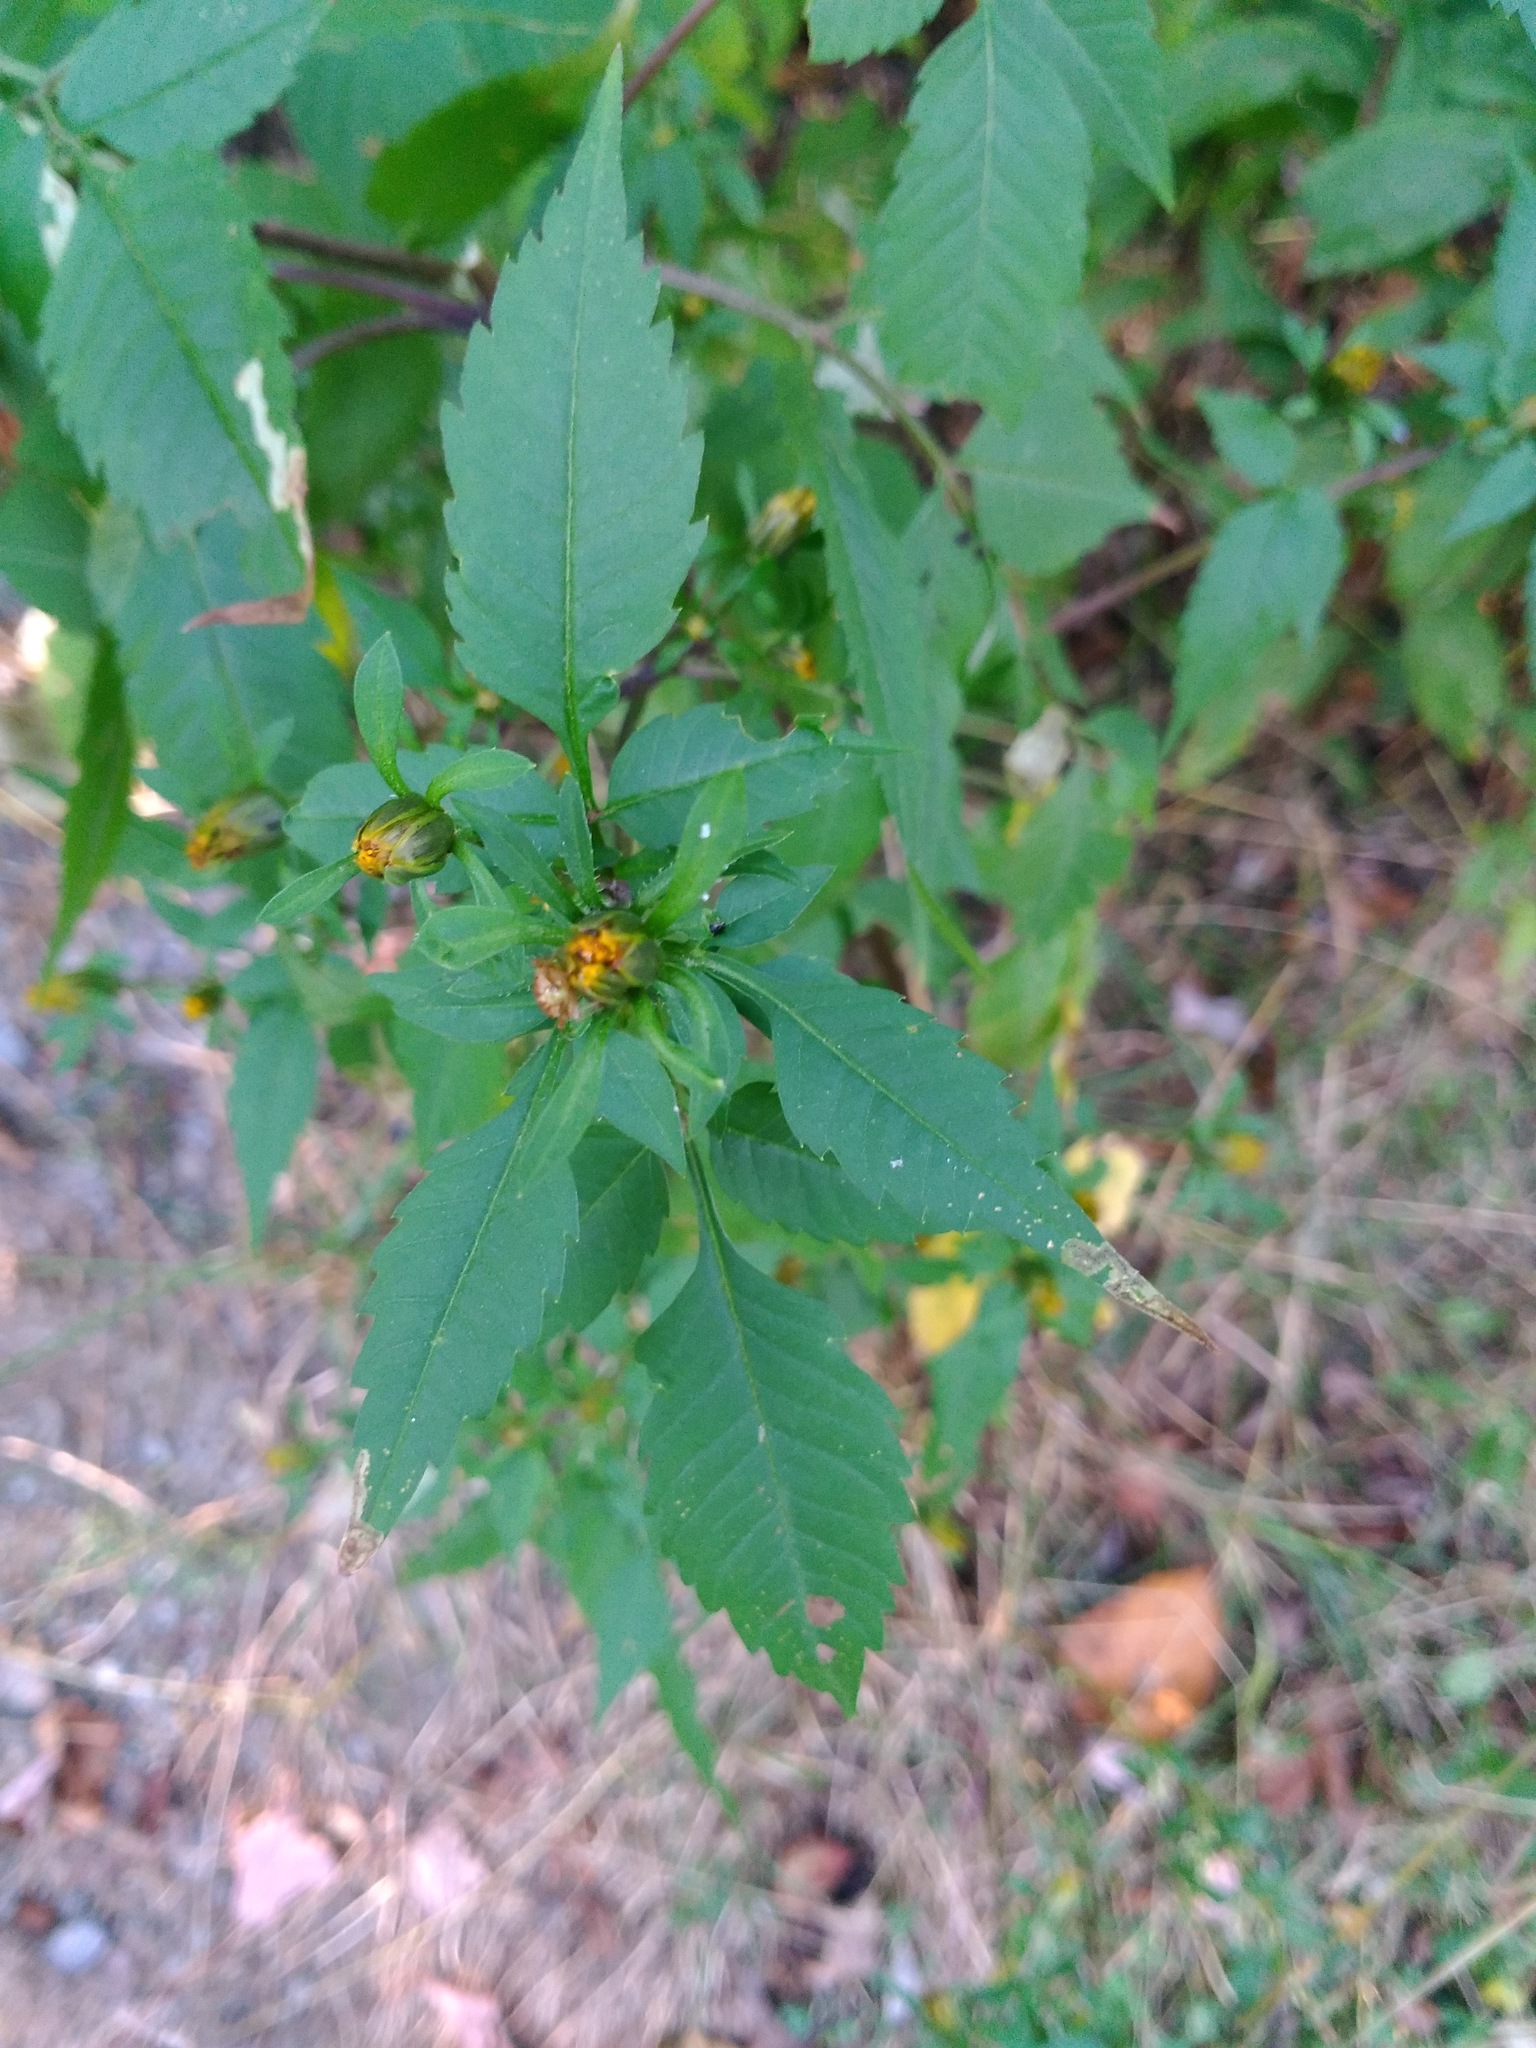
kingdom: Plantae
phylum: Tracheophyta
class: Magnoliopsida
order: Asterales
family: Asteraceae
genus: Bidens
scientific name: Bidens frondosa
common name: Beggarticks
